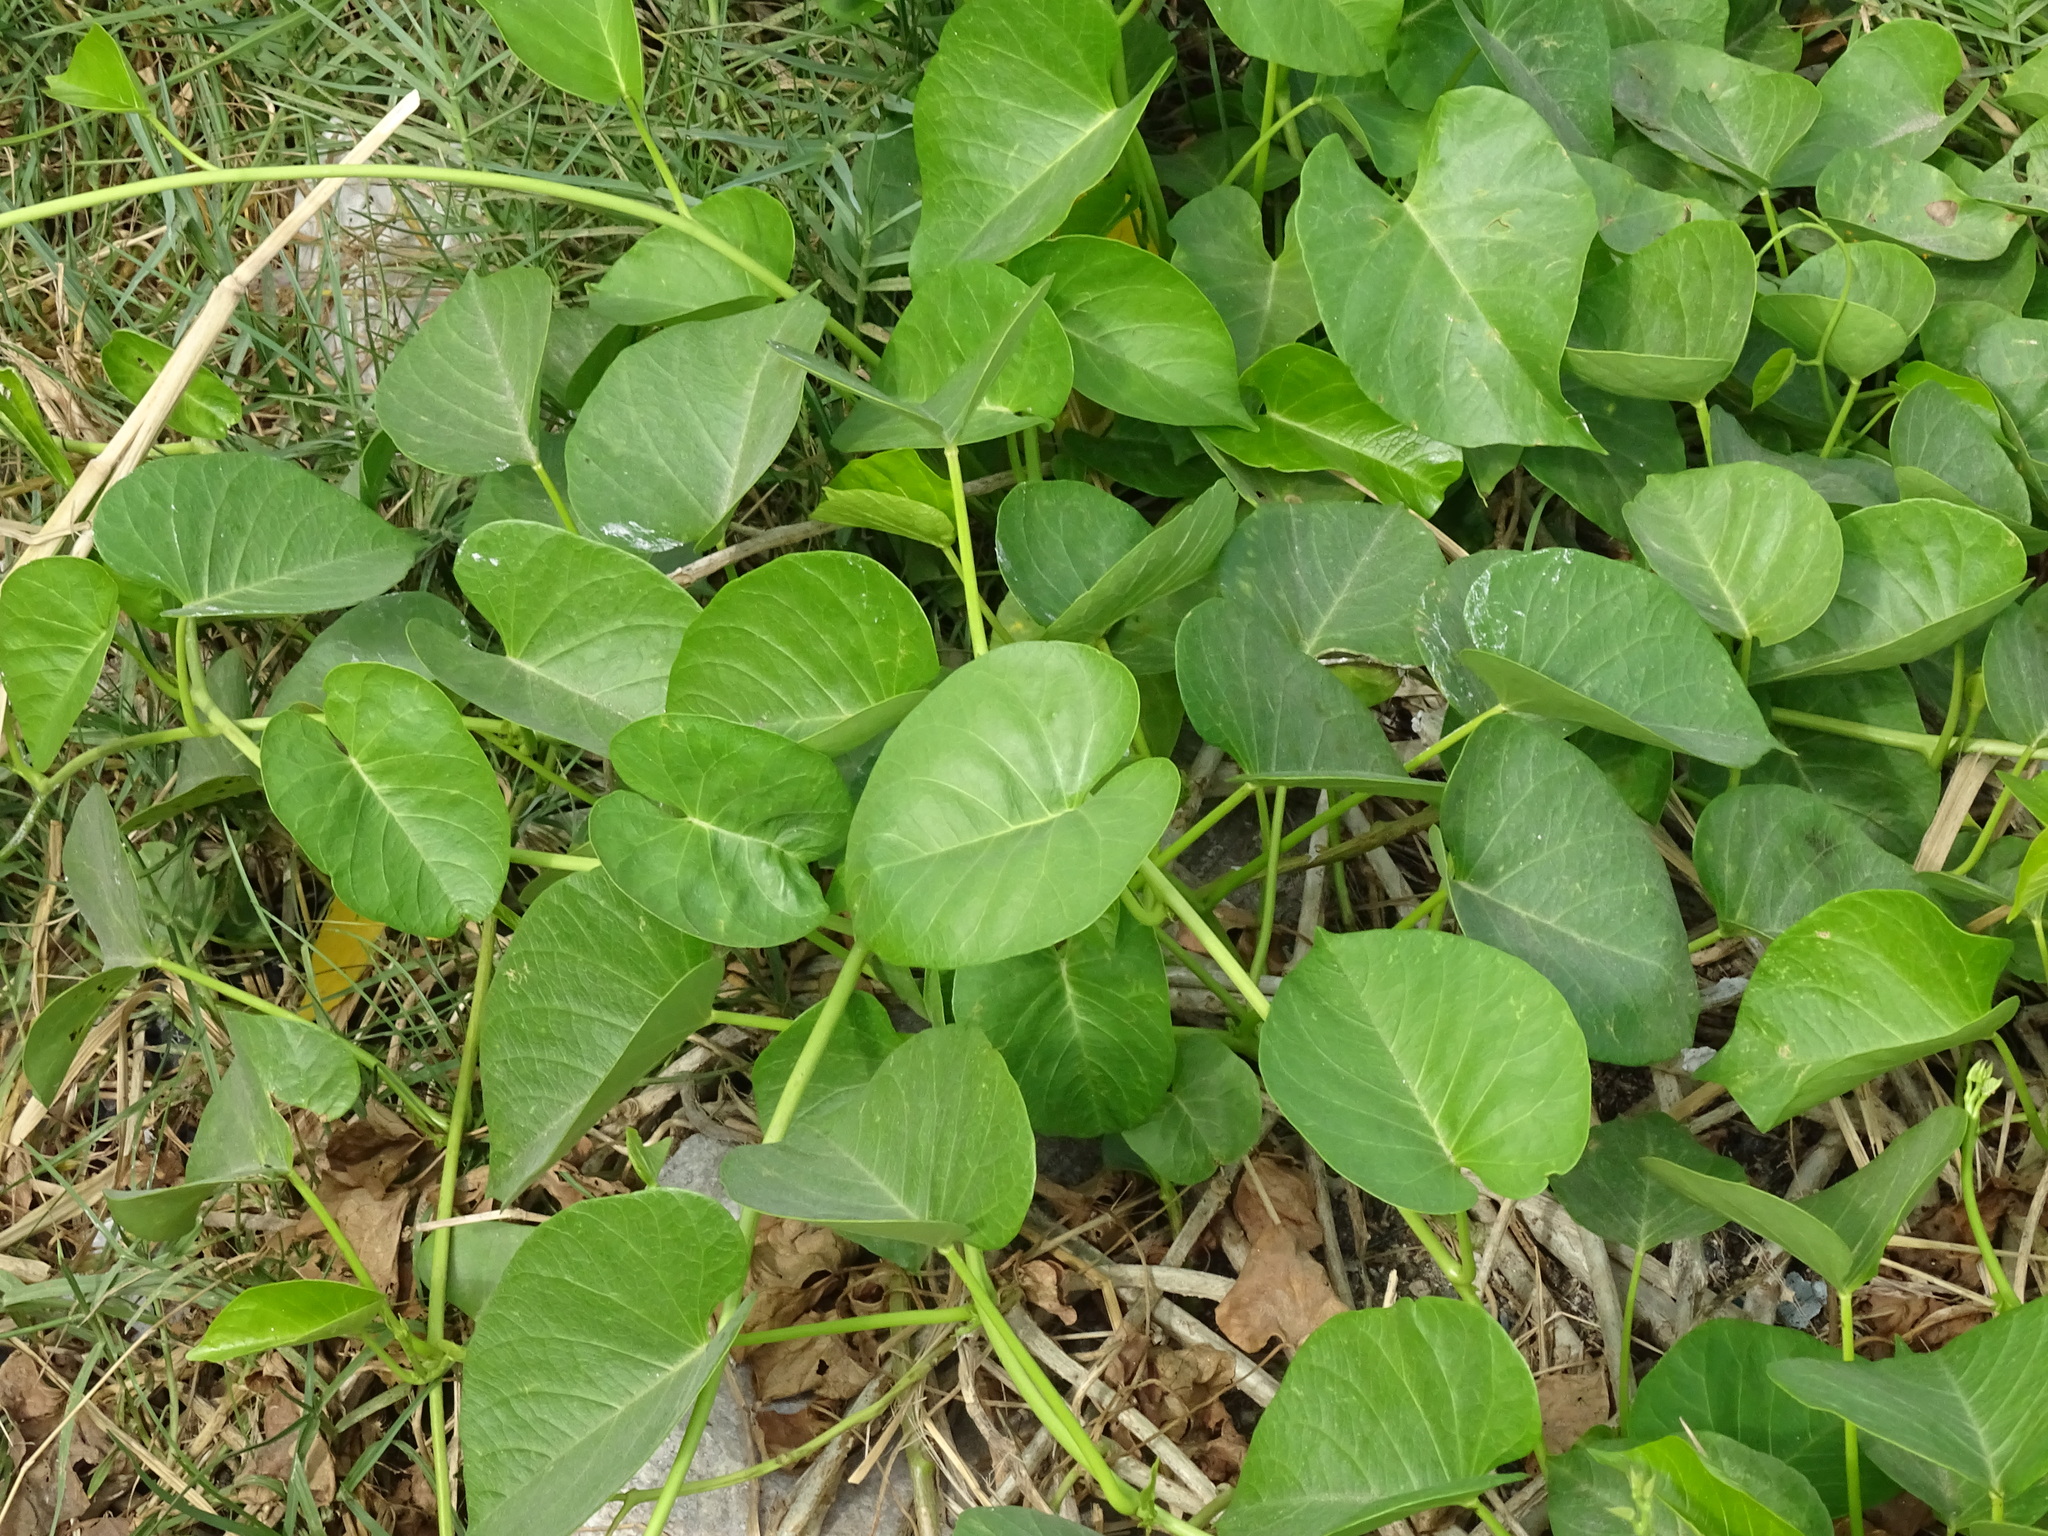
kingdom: Plantae
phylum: Tracheophyta
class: Magnoliopsida
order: Solanales
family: Convolvulaceae
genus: Ipomoea
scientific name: Ipomoea violacea
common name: Beach moonflower
